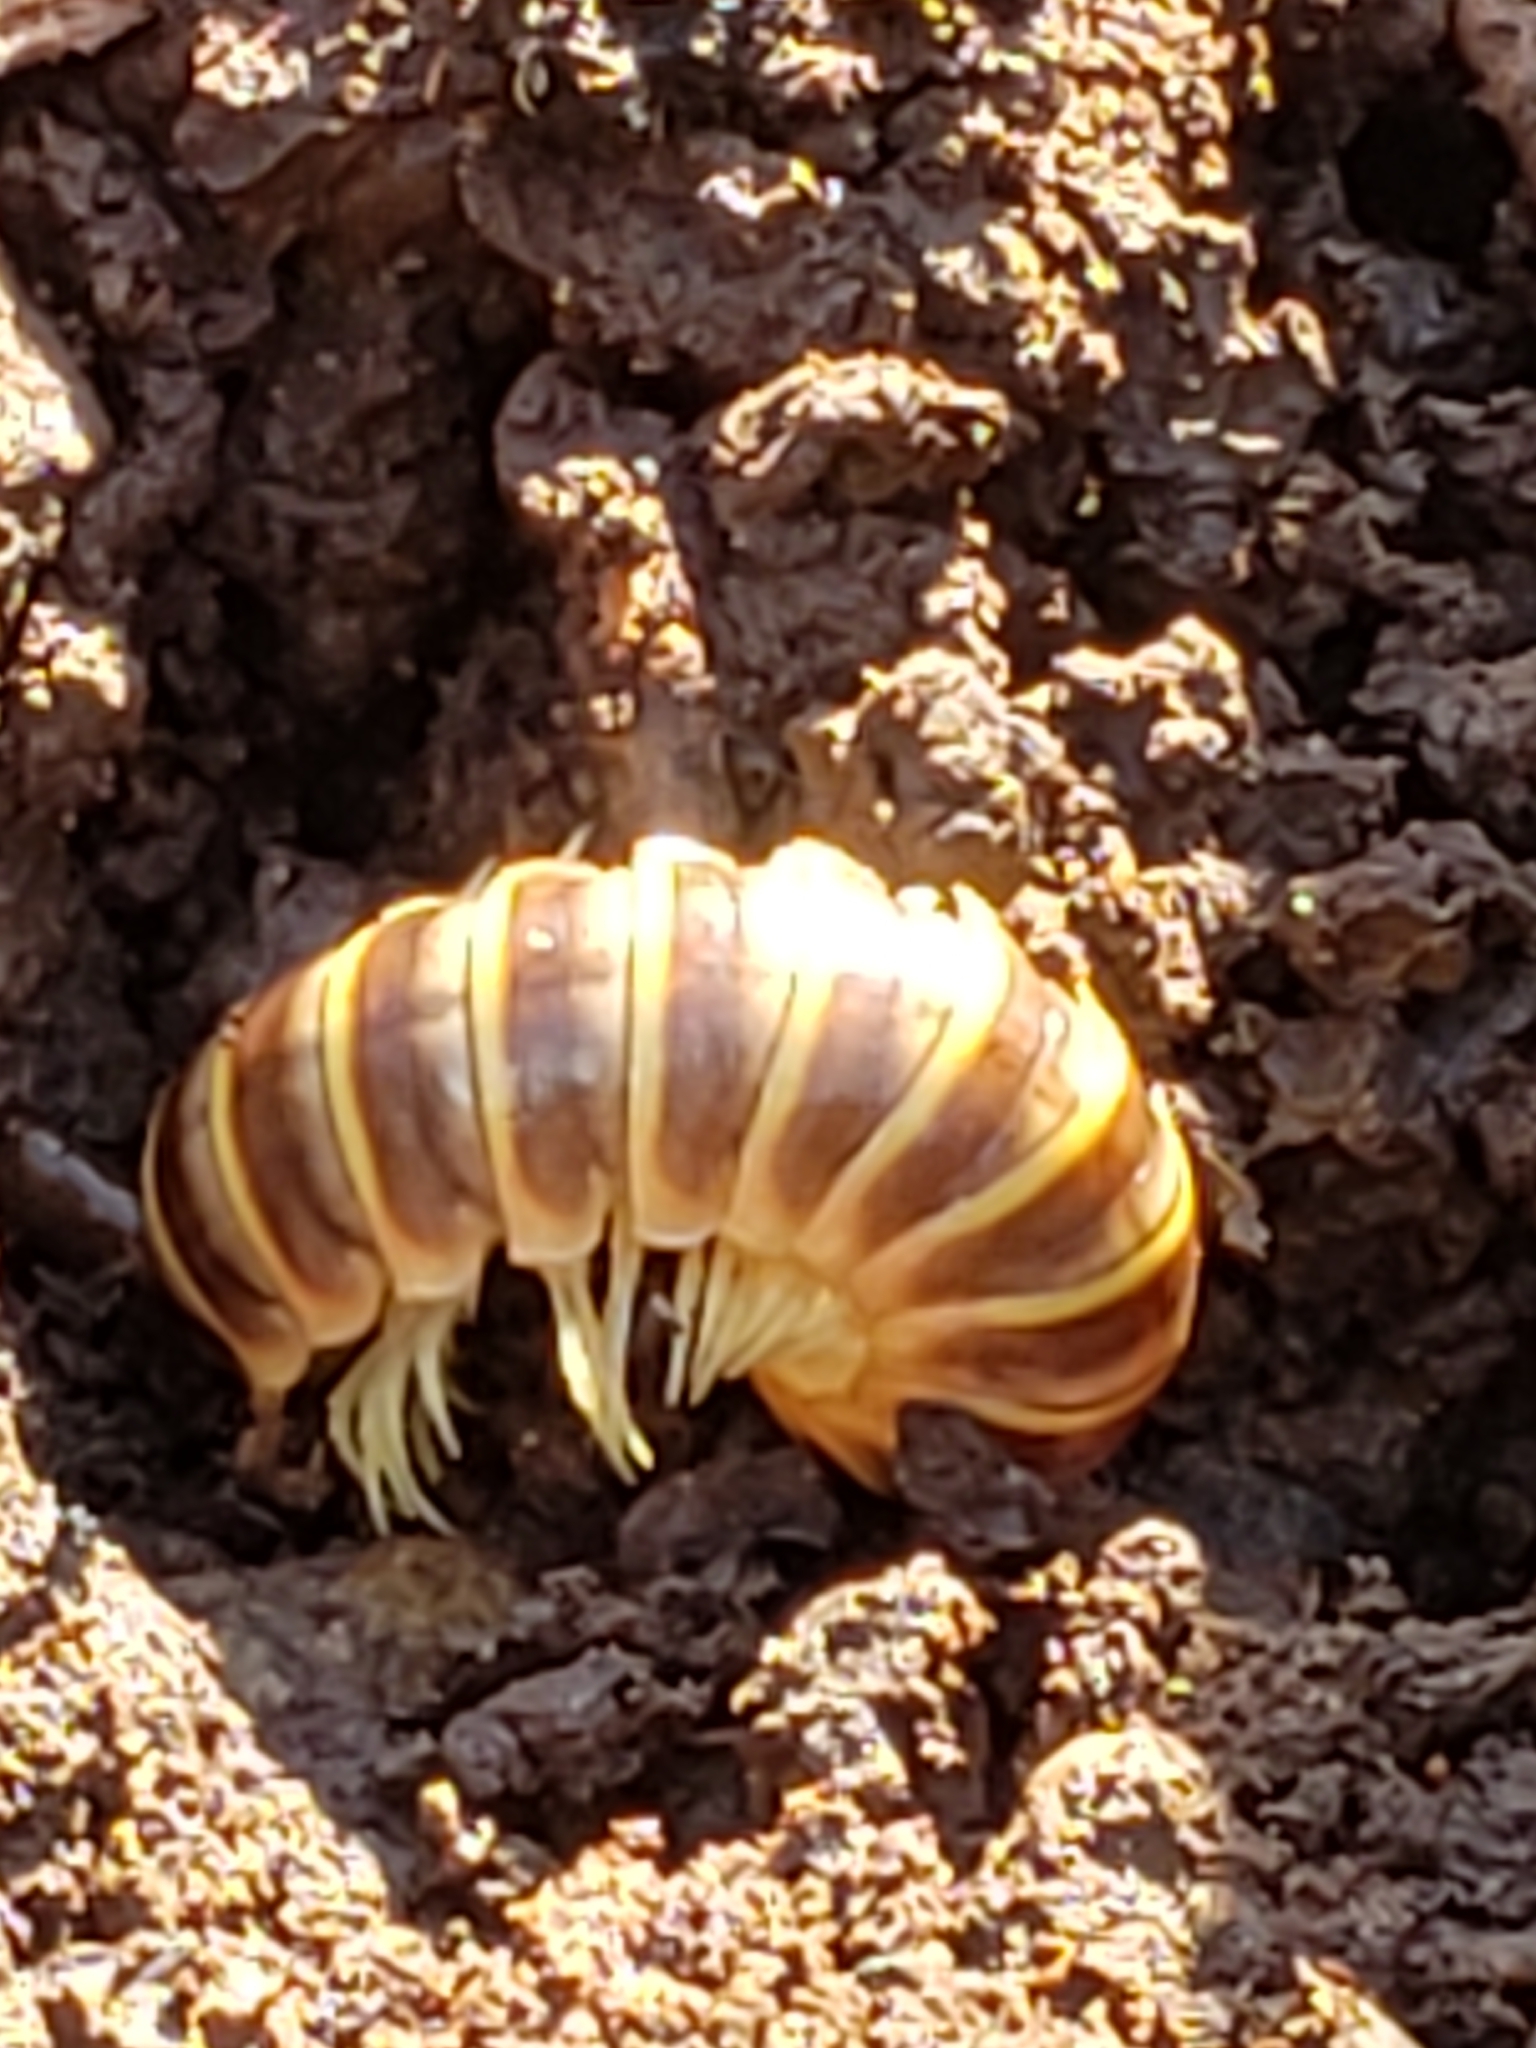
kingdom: Animalia
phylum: Arthropoda
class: Diplopoda
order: Polydesmida
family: Xystodesmidae
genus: Apheloria
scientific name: Apheloria virginiensis
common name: Black-and-gold flat millipede
